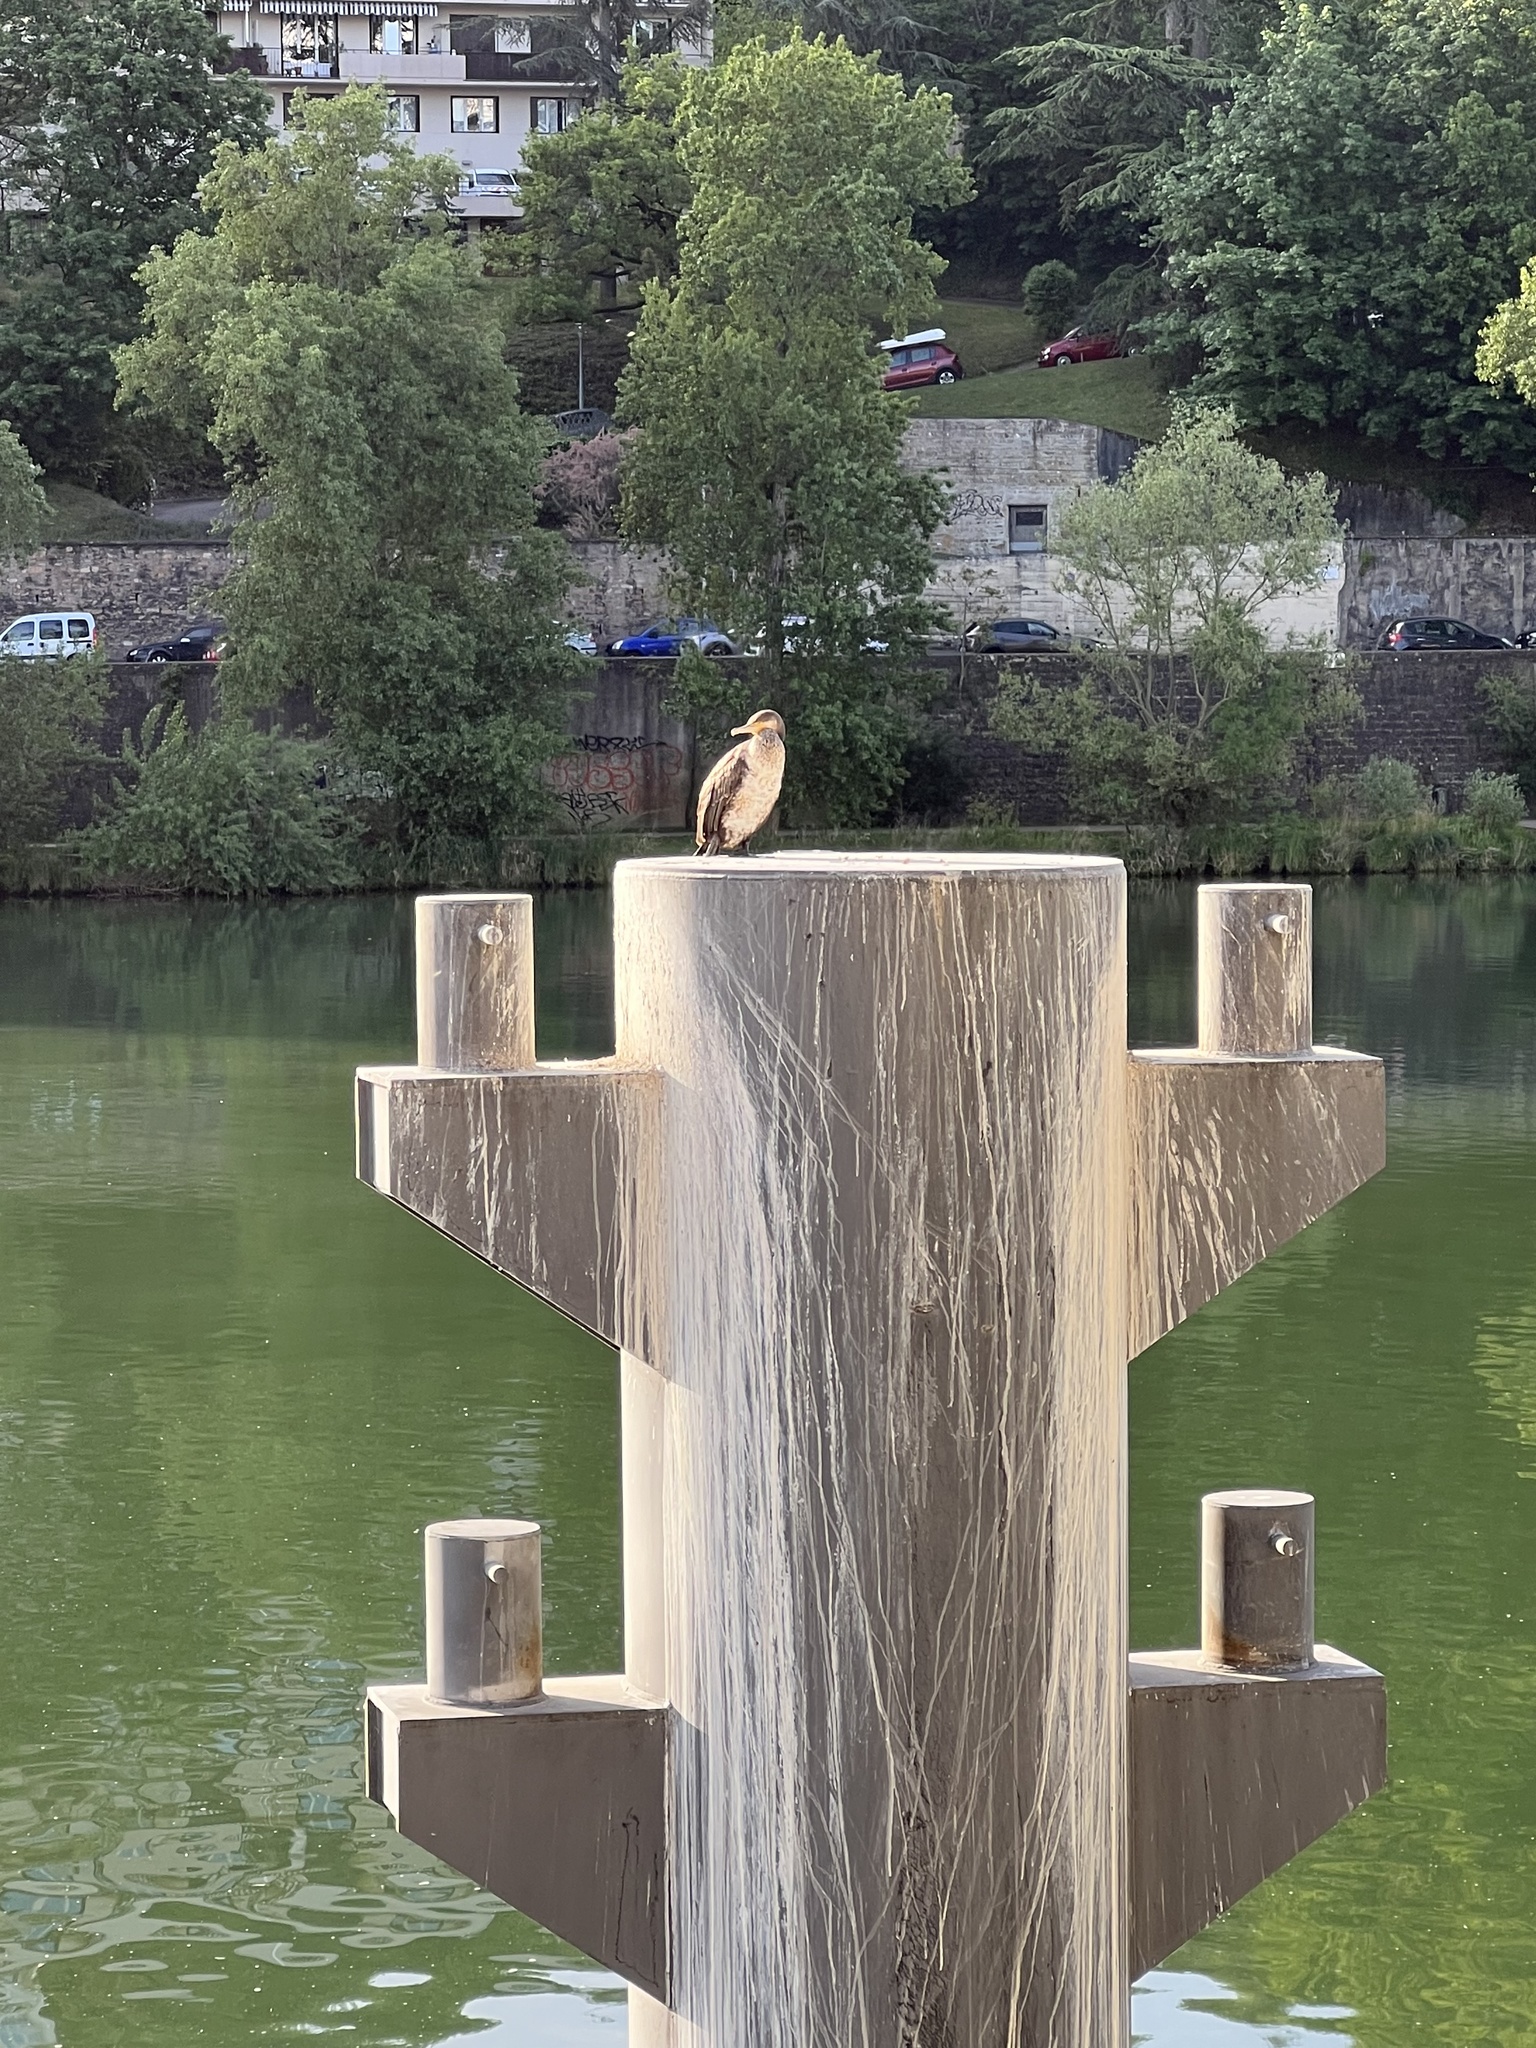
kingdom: Animalia
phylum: Chordata
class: Aves
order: Suliformes
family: Phalacrocoracidae
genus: Phalacrocorax
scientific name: Phalacrocorax carbo
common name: Great cormorant
